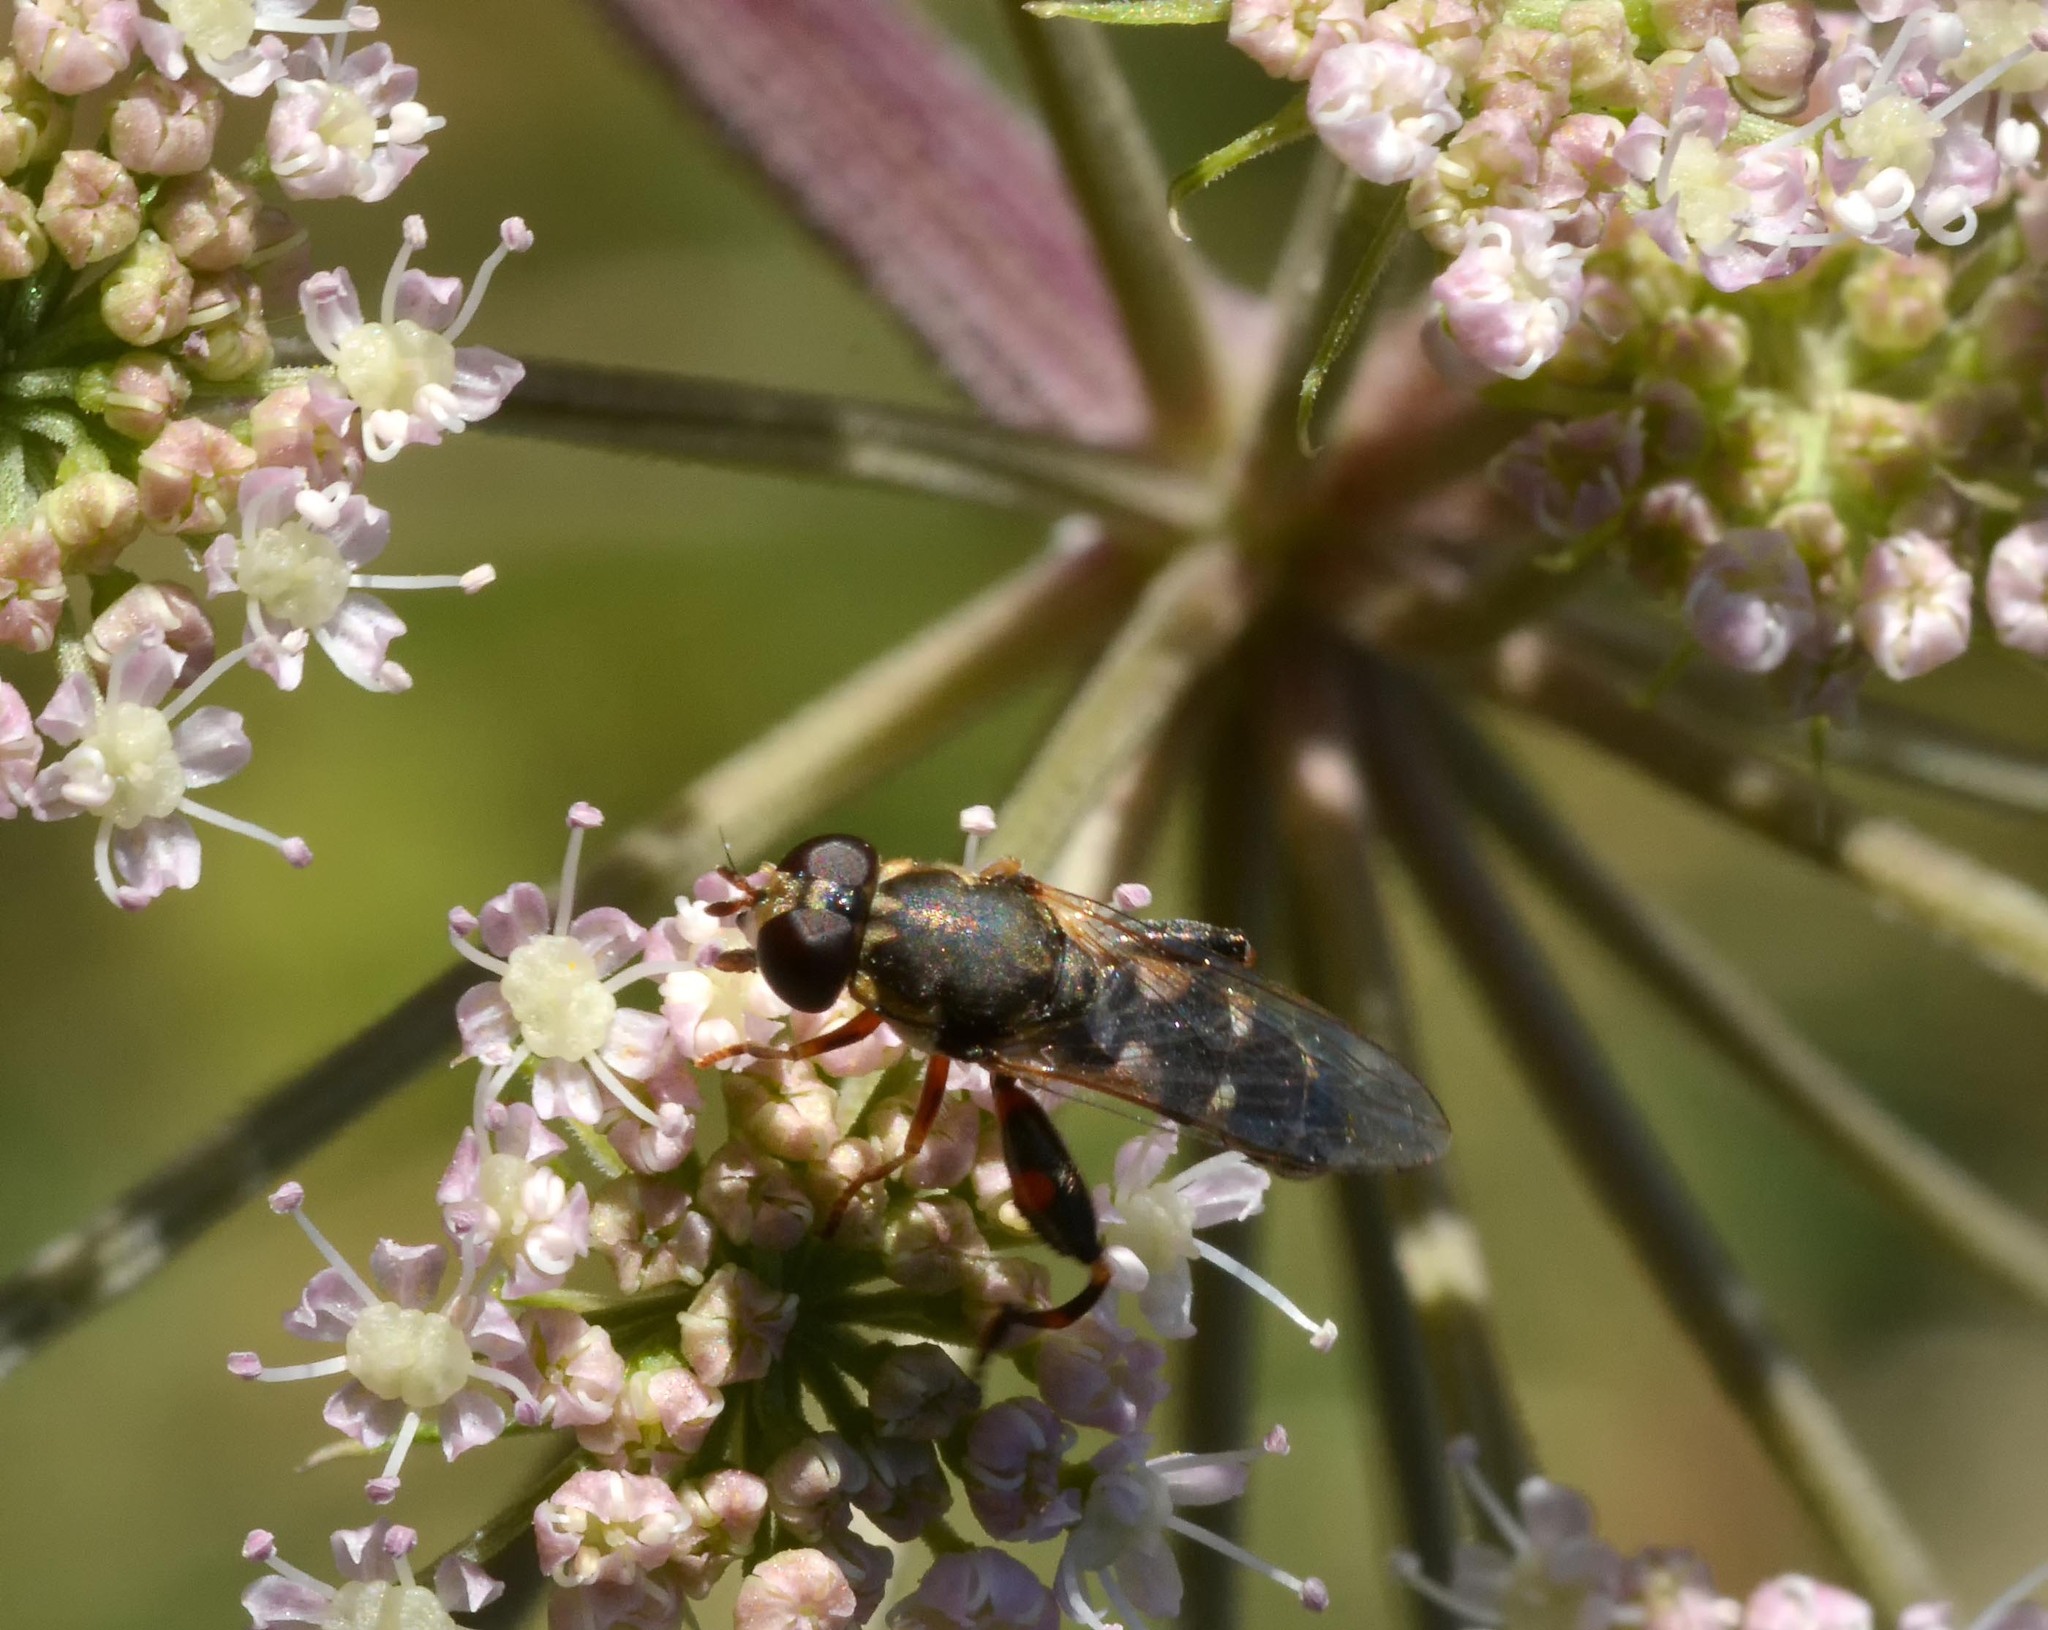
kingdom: Animalia
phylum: Arthropoda
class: Insecta
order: Diptera
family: Syrphidae
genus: Syritta
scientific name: Syritta pipiens
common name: Hover fly
